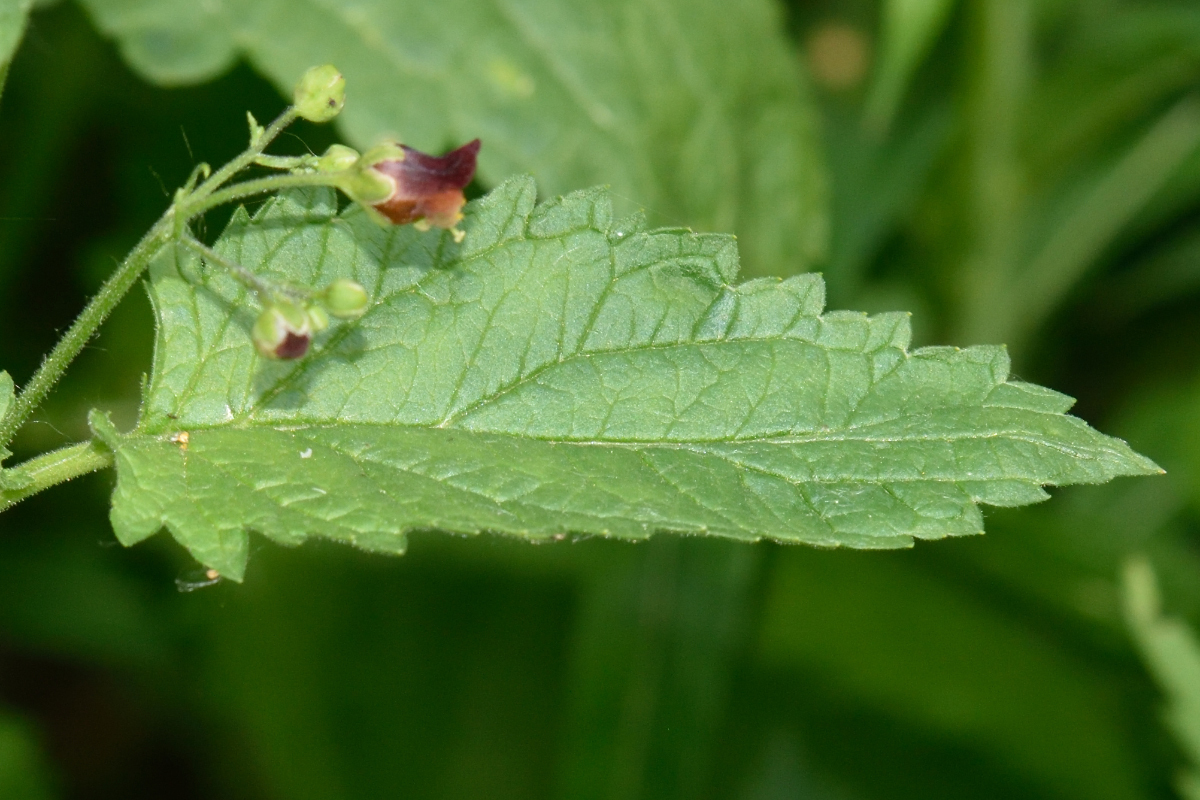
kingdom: Plantae
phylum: Tracheophyta
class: Magnoliopsida
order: Lamiales
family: Scrophulariaceae
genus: Scrophularia
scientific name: Scrophularia nodosa
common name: Common figwort
